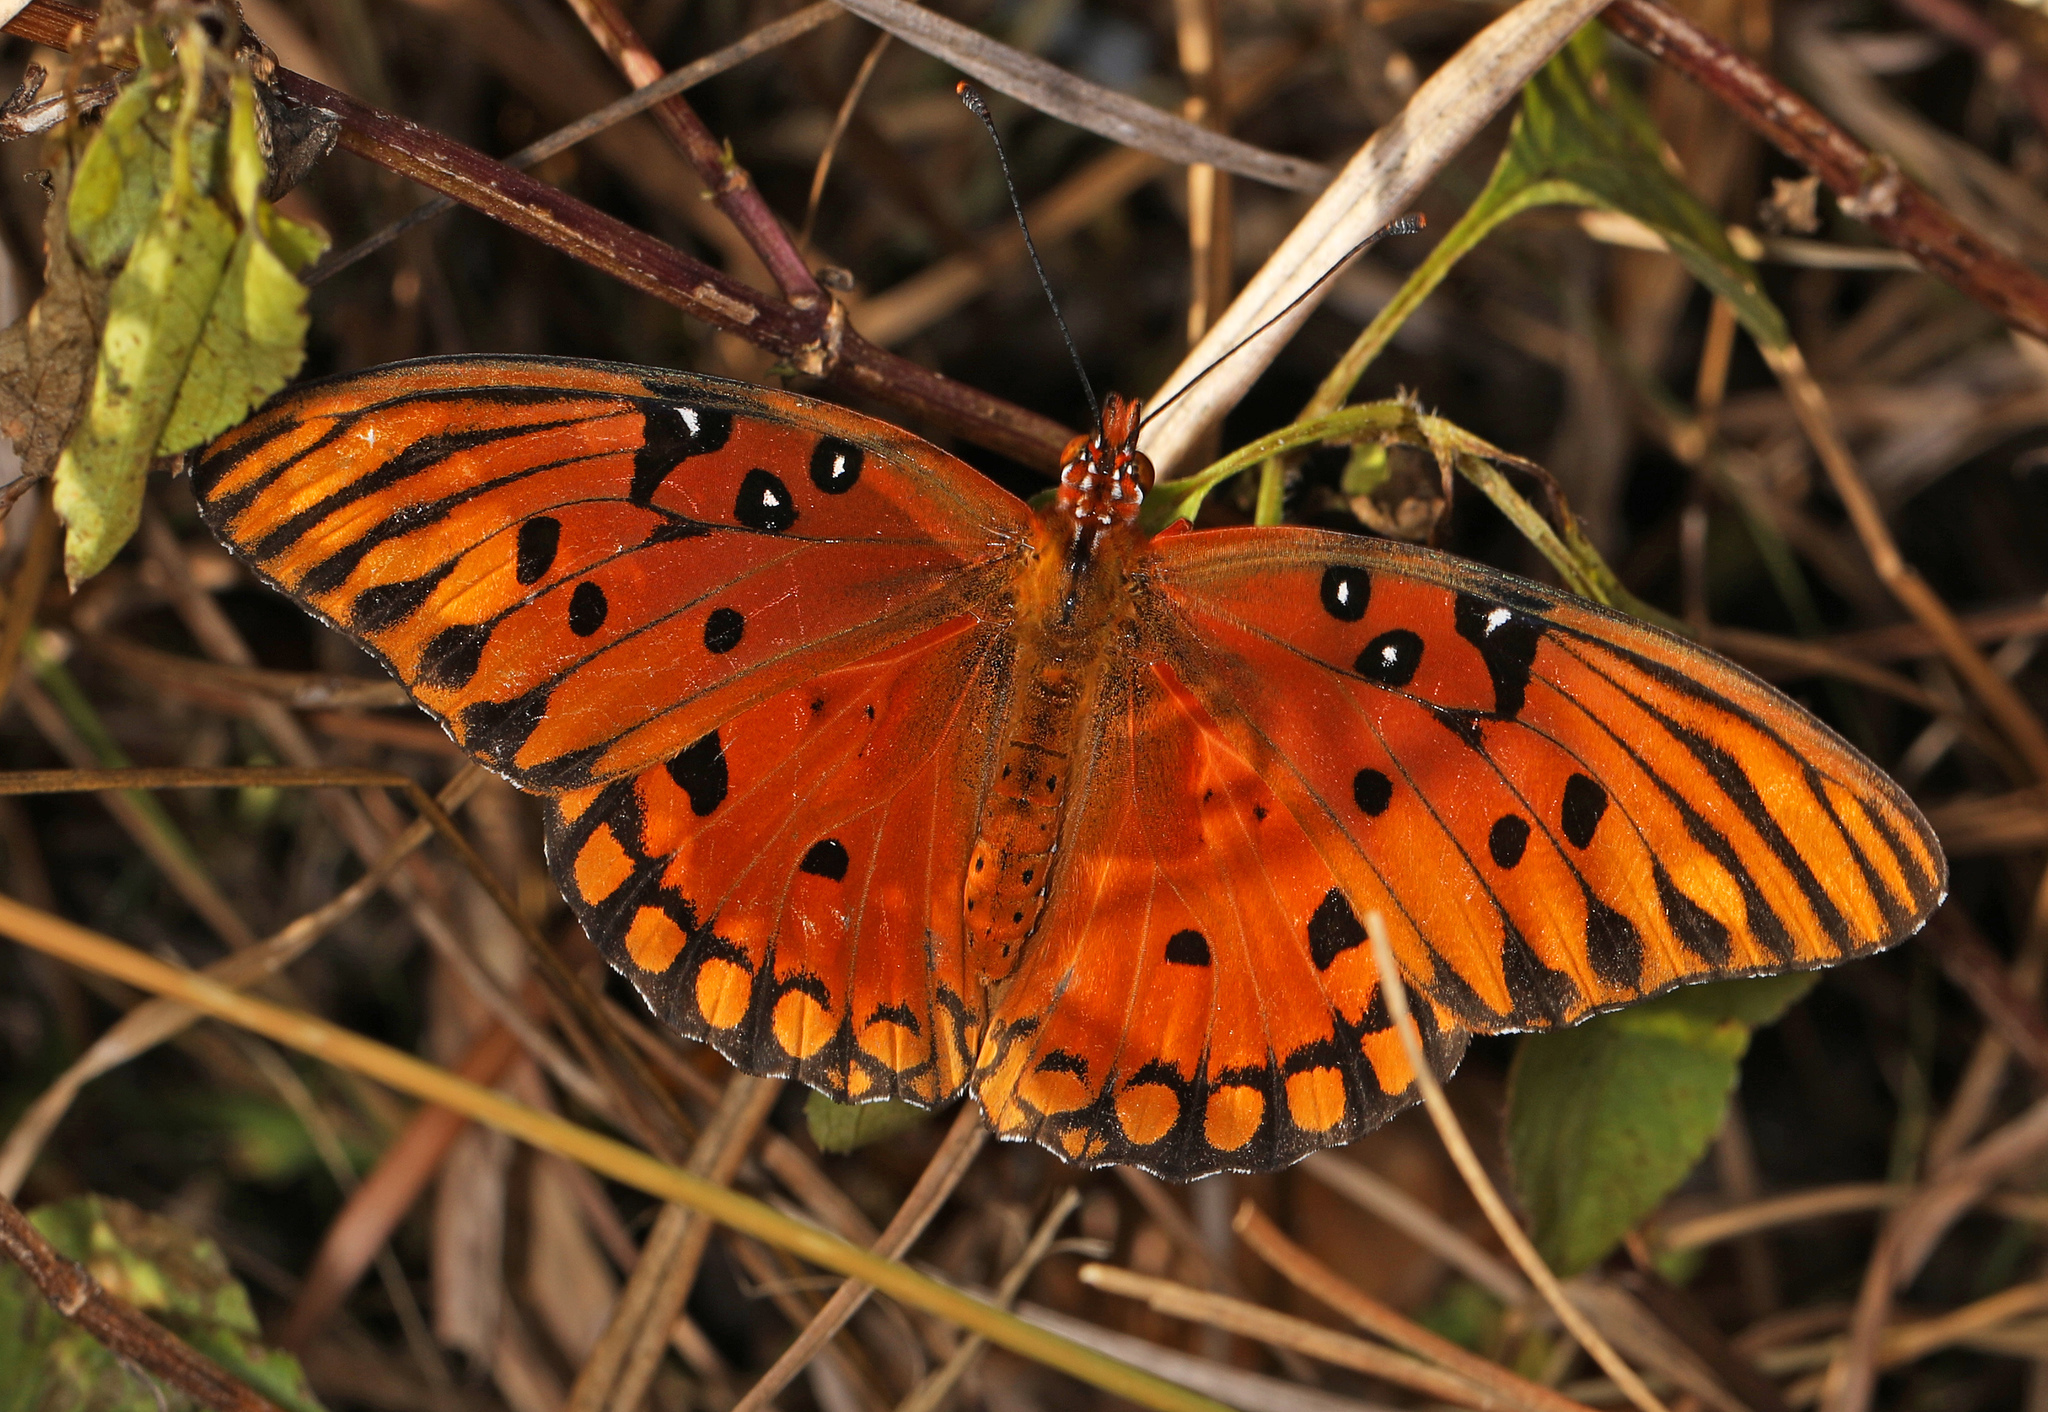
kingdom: Animalia
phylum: Arthropoda
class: Insecta
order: Lepidoptera
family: Nymphalidae
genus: Dione
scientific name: Dione vanillae
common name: Gulf fritillary
